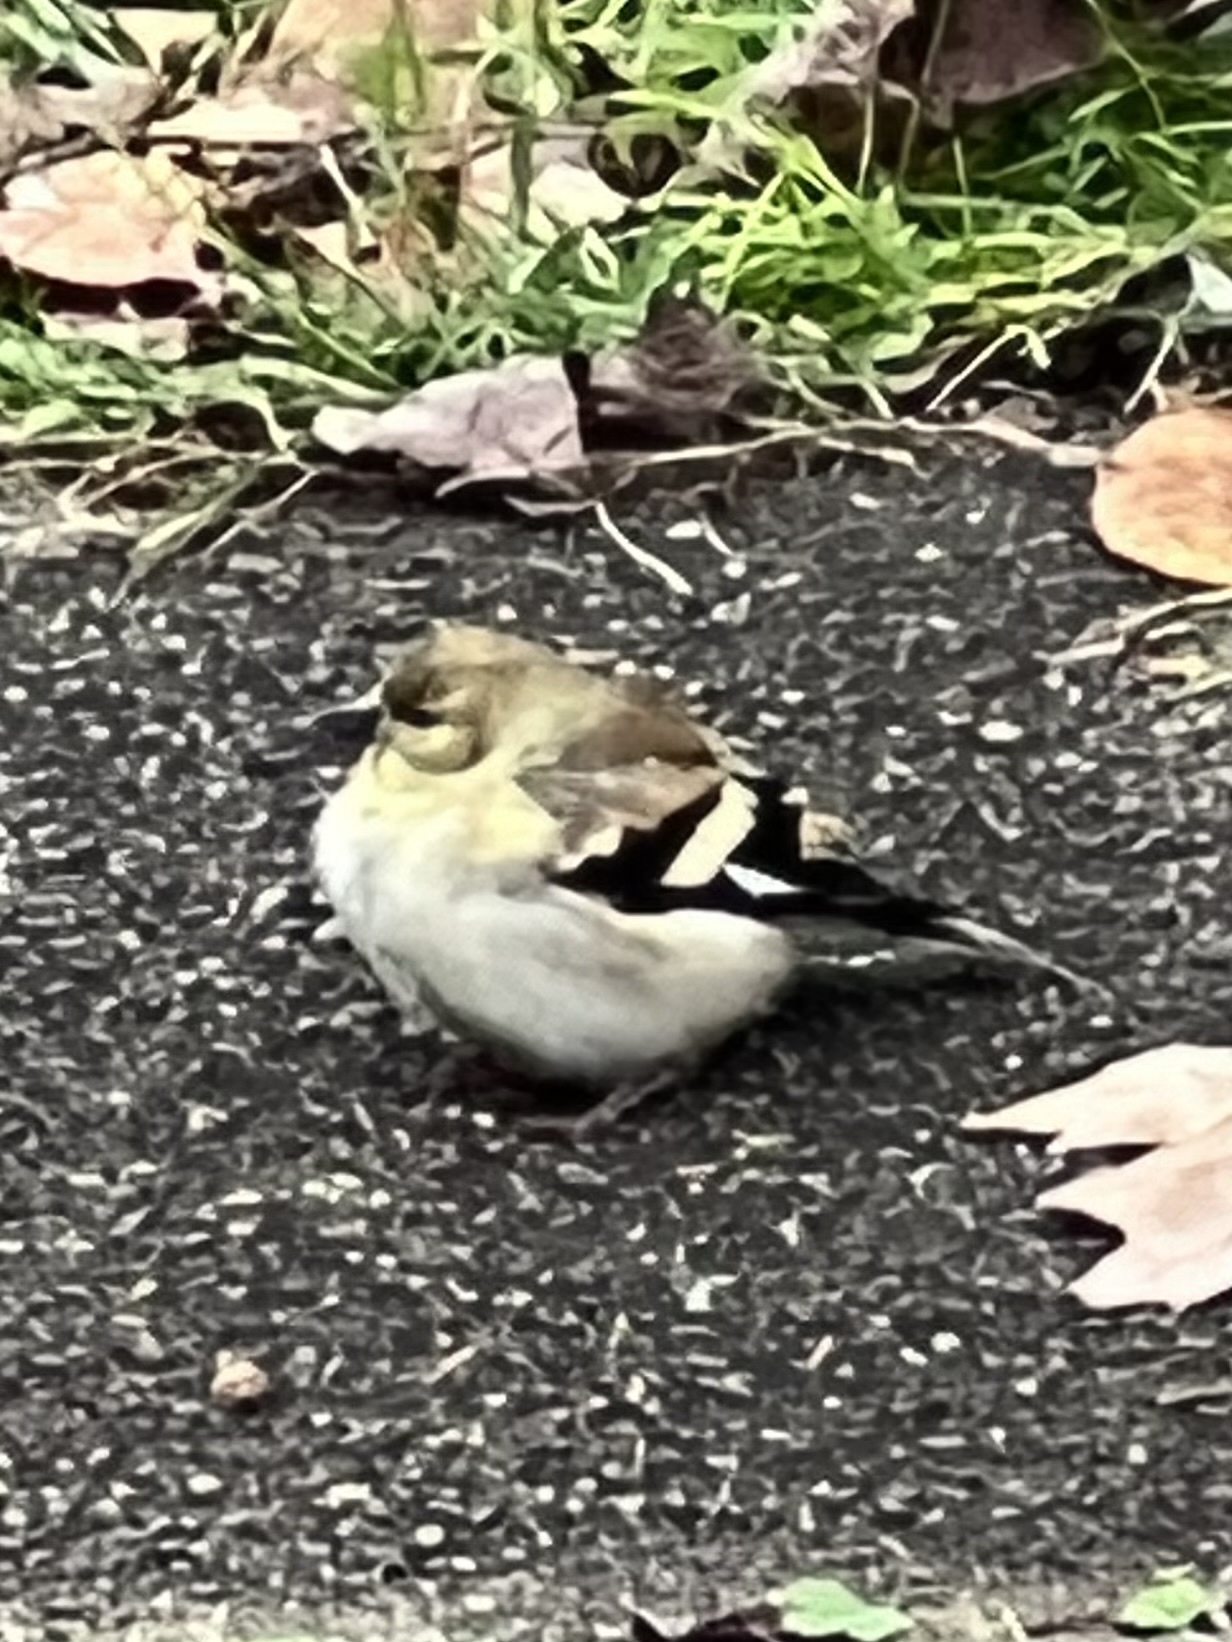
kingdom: Animalia
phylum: Chordata
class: Aves
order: Passeriformes
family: Fringillidae
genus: Spinus
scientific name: Spinus tristis
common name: American goldfinch
